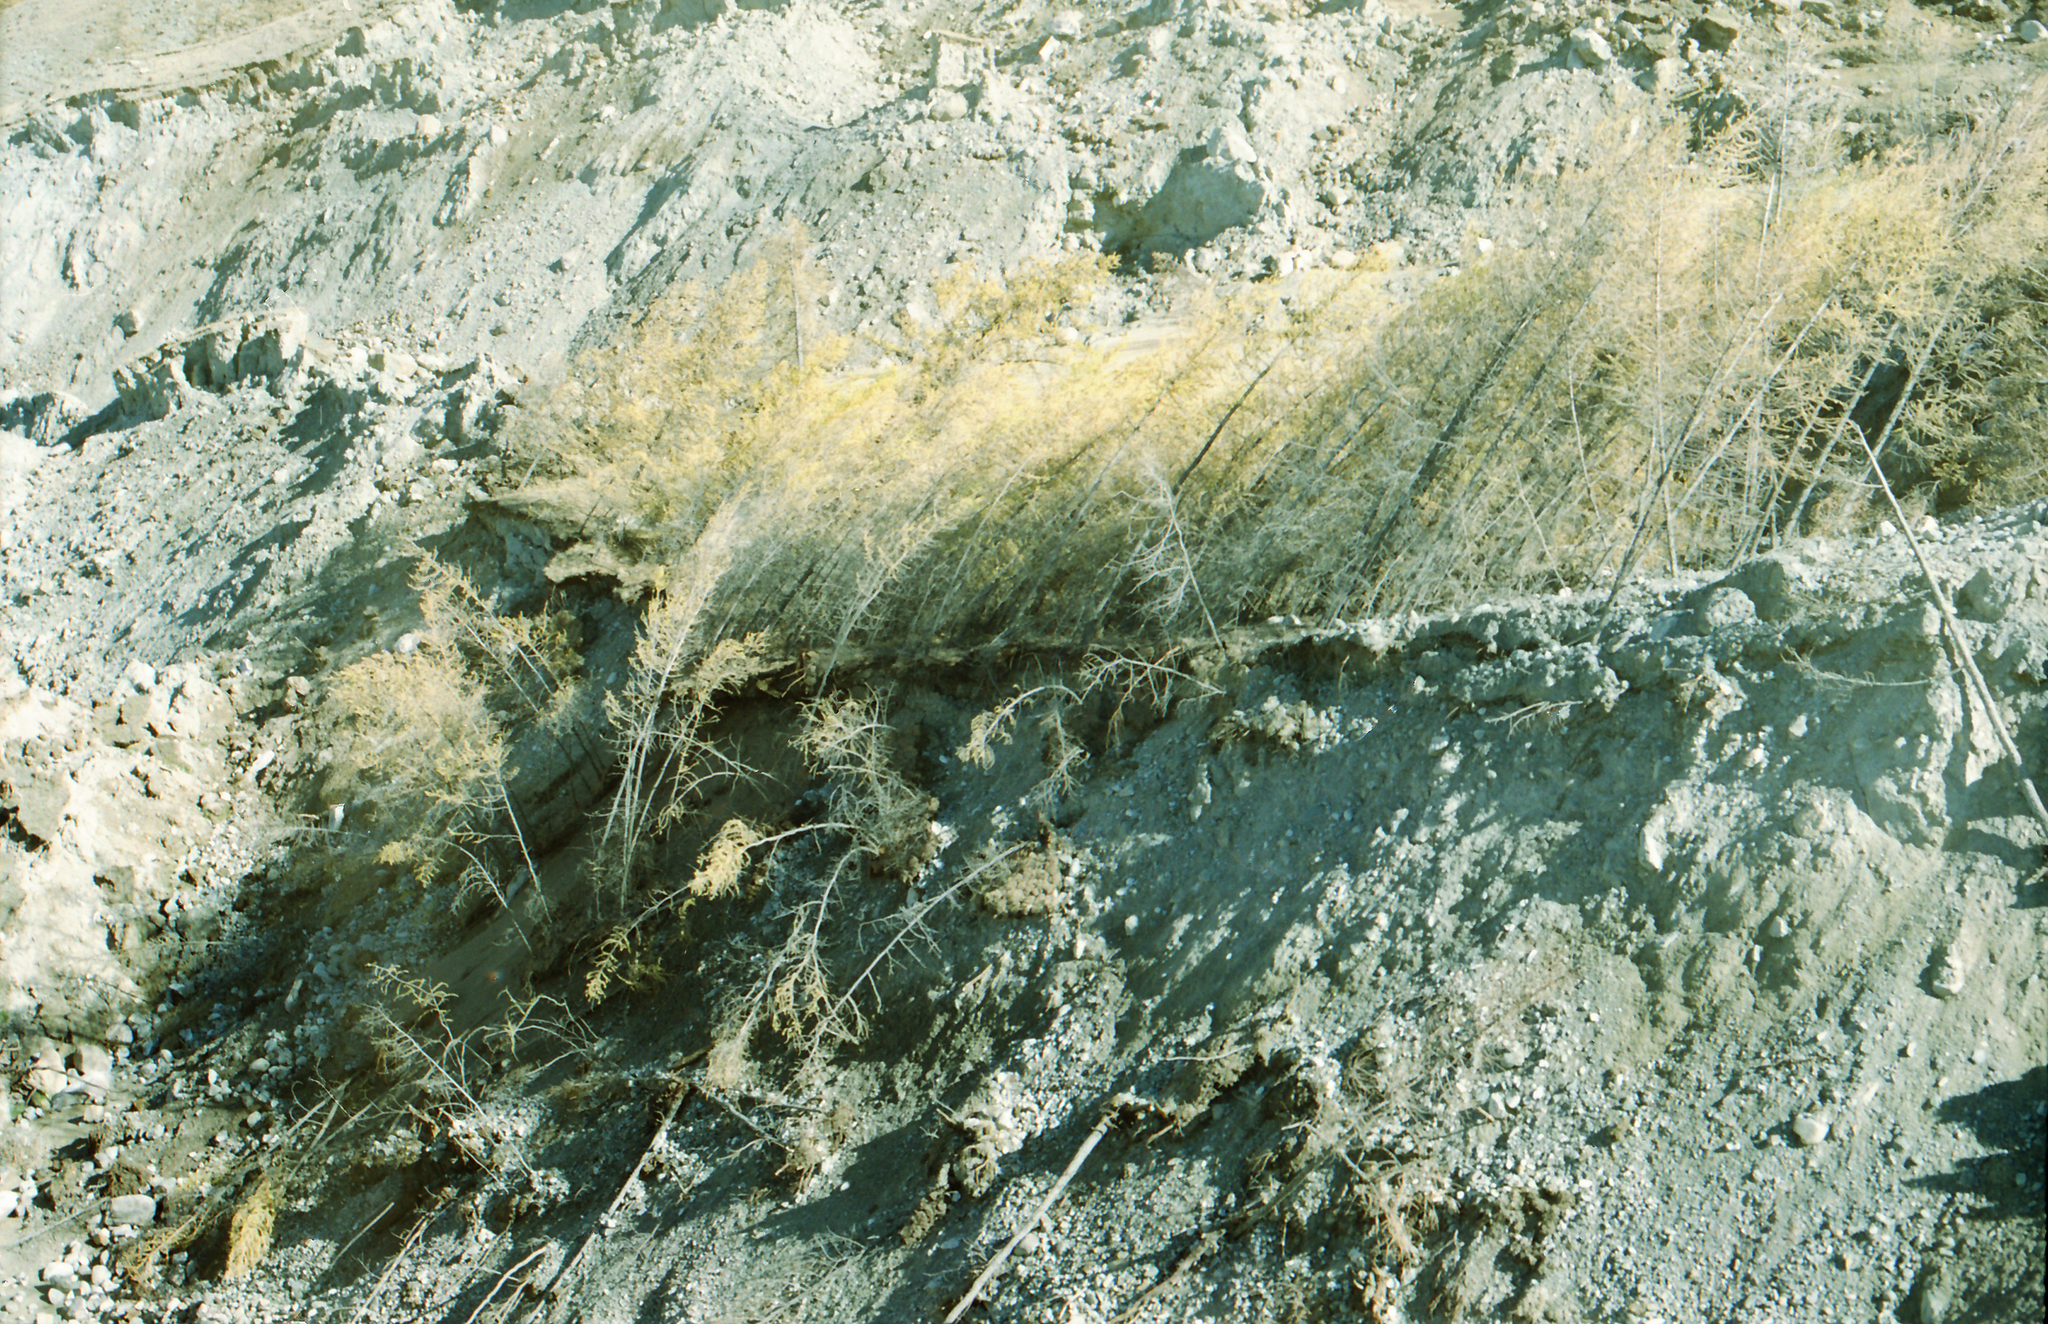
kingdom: Plantae
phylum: Tracheophyta
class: Pinopsida
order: Pinales
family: Pinaceae
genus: Larix
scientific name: Larix sibirica
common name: Siberian larch
